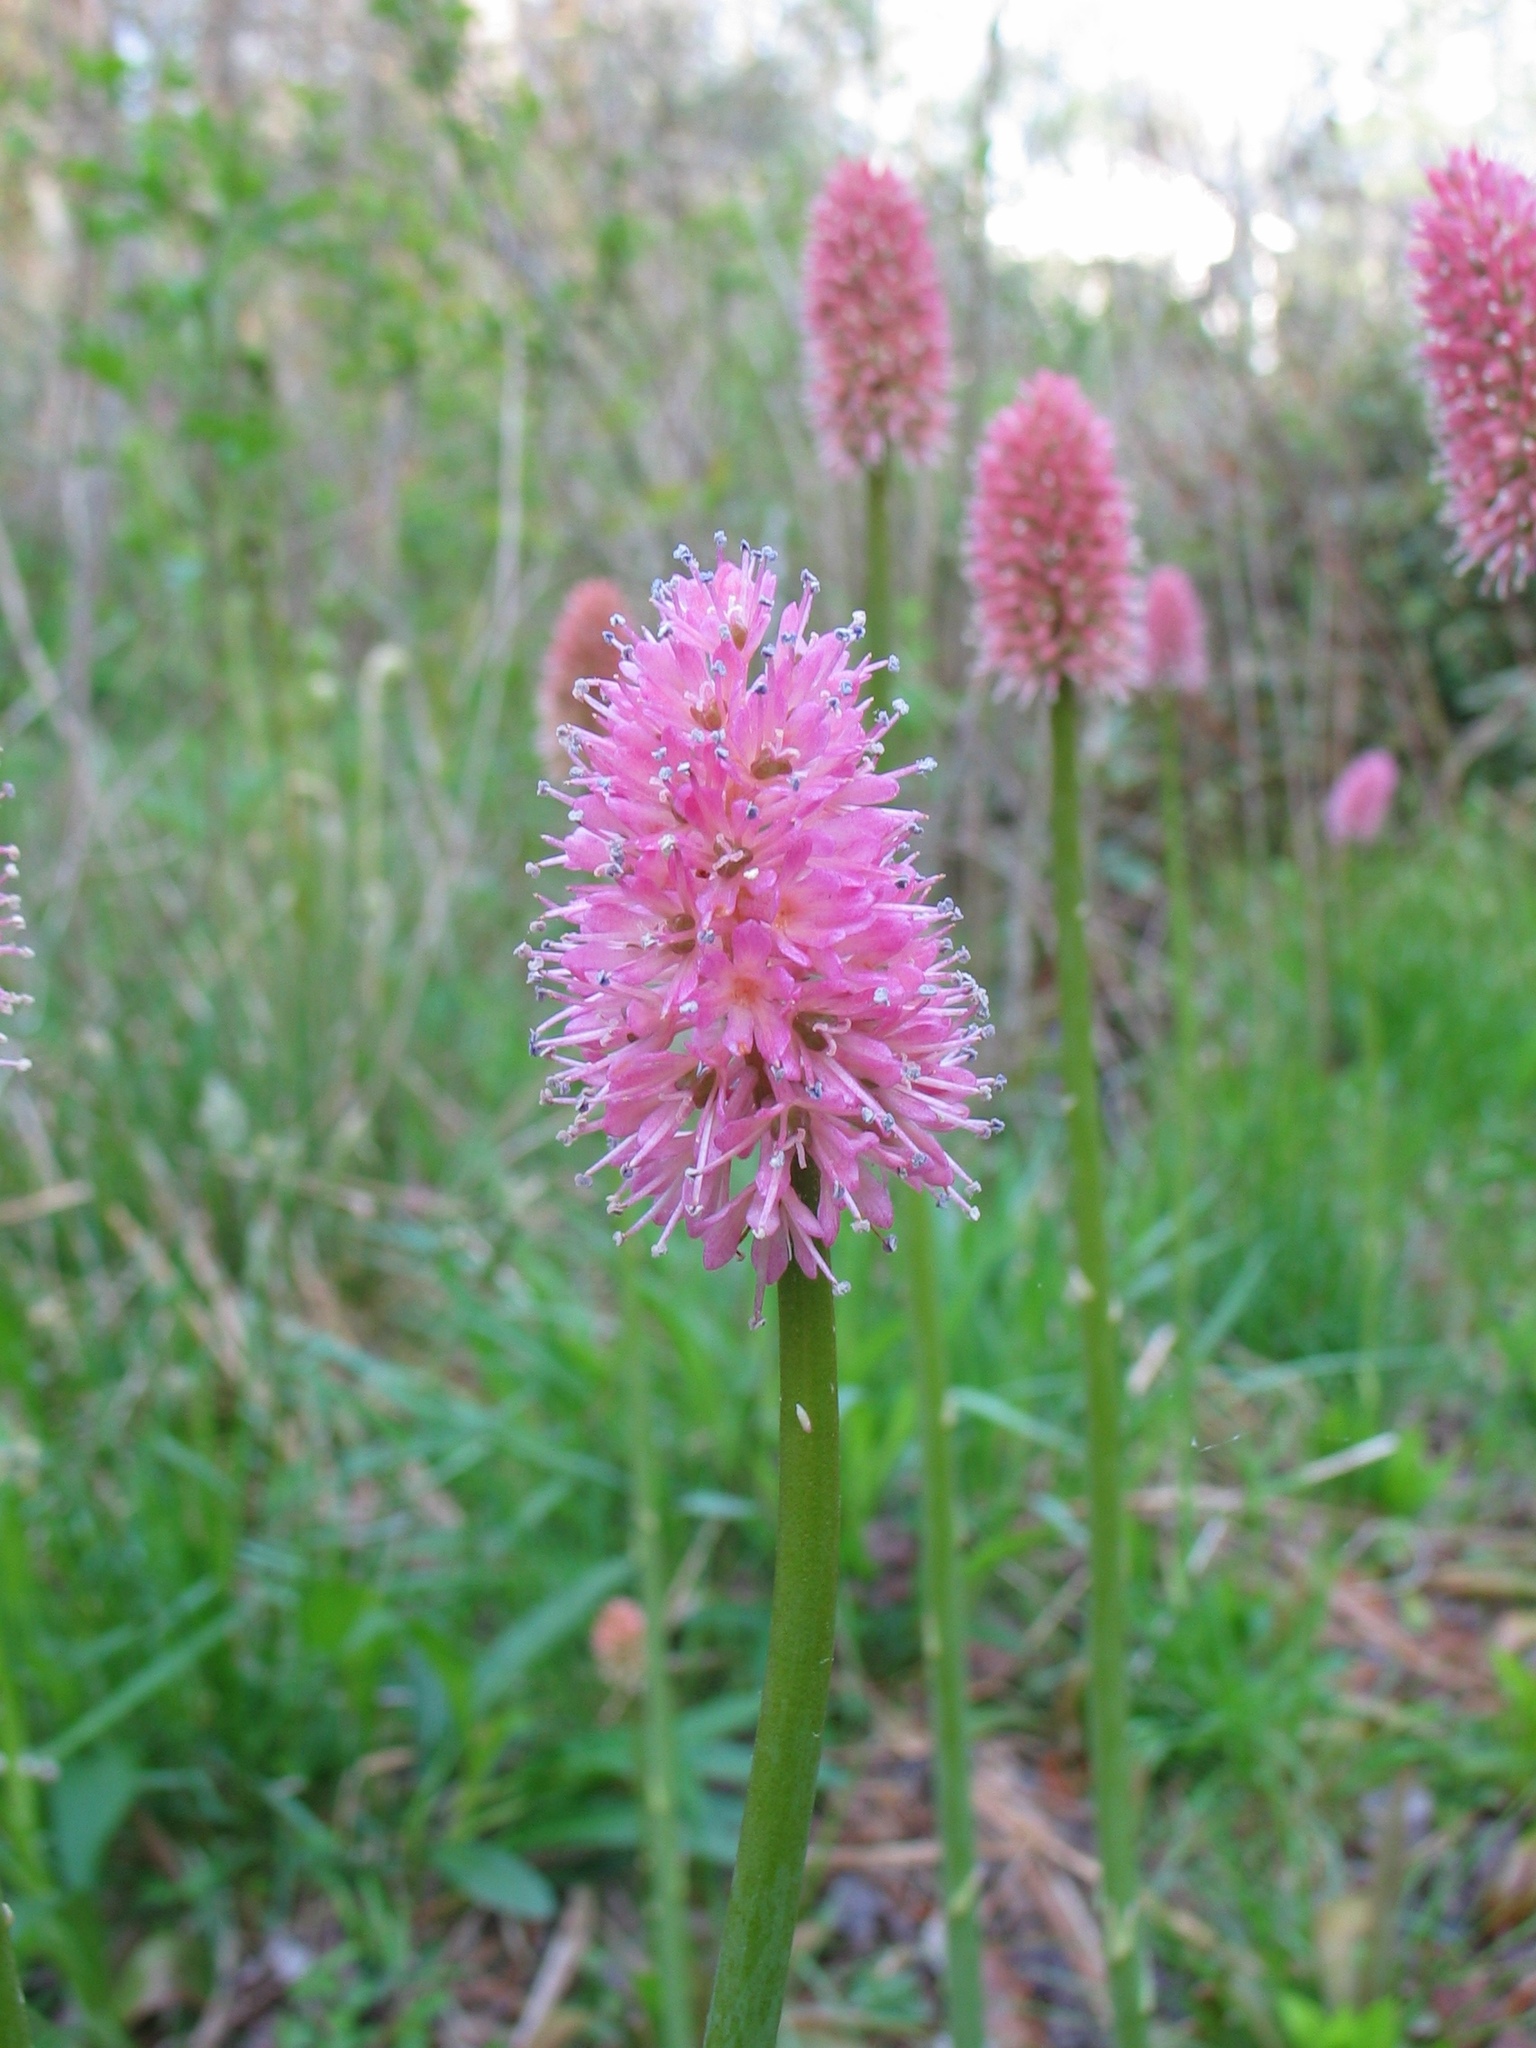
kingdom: Plantae
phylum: Tracheophyta
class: Liliopsida
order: Liliales
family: Melanthiaceae
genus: Helonias
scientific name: Helonias bullata
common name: Swamp-pink
